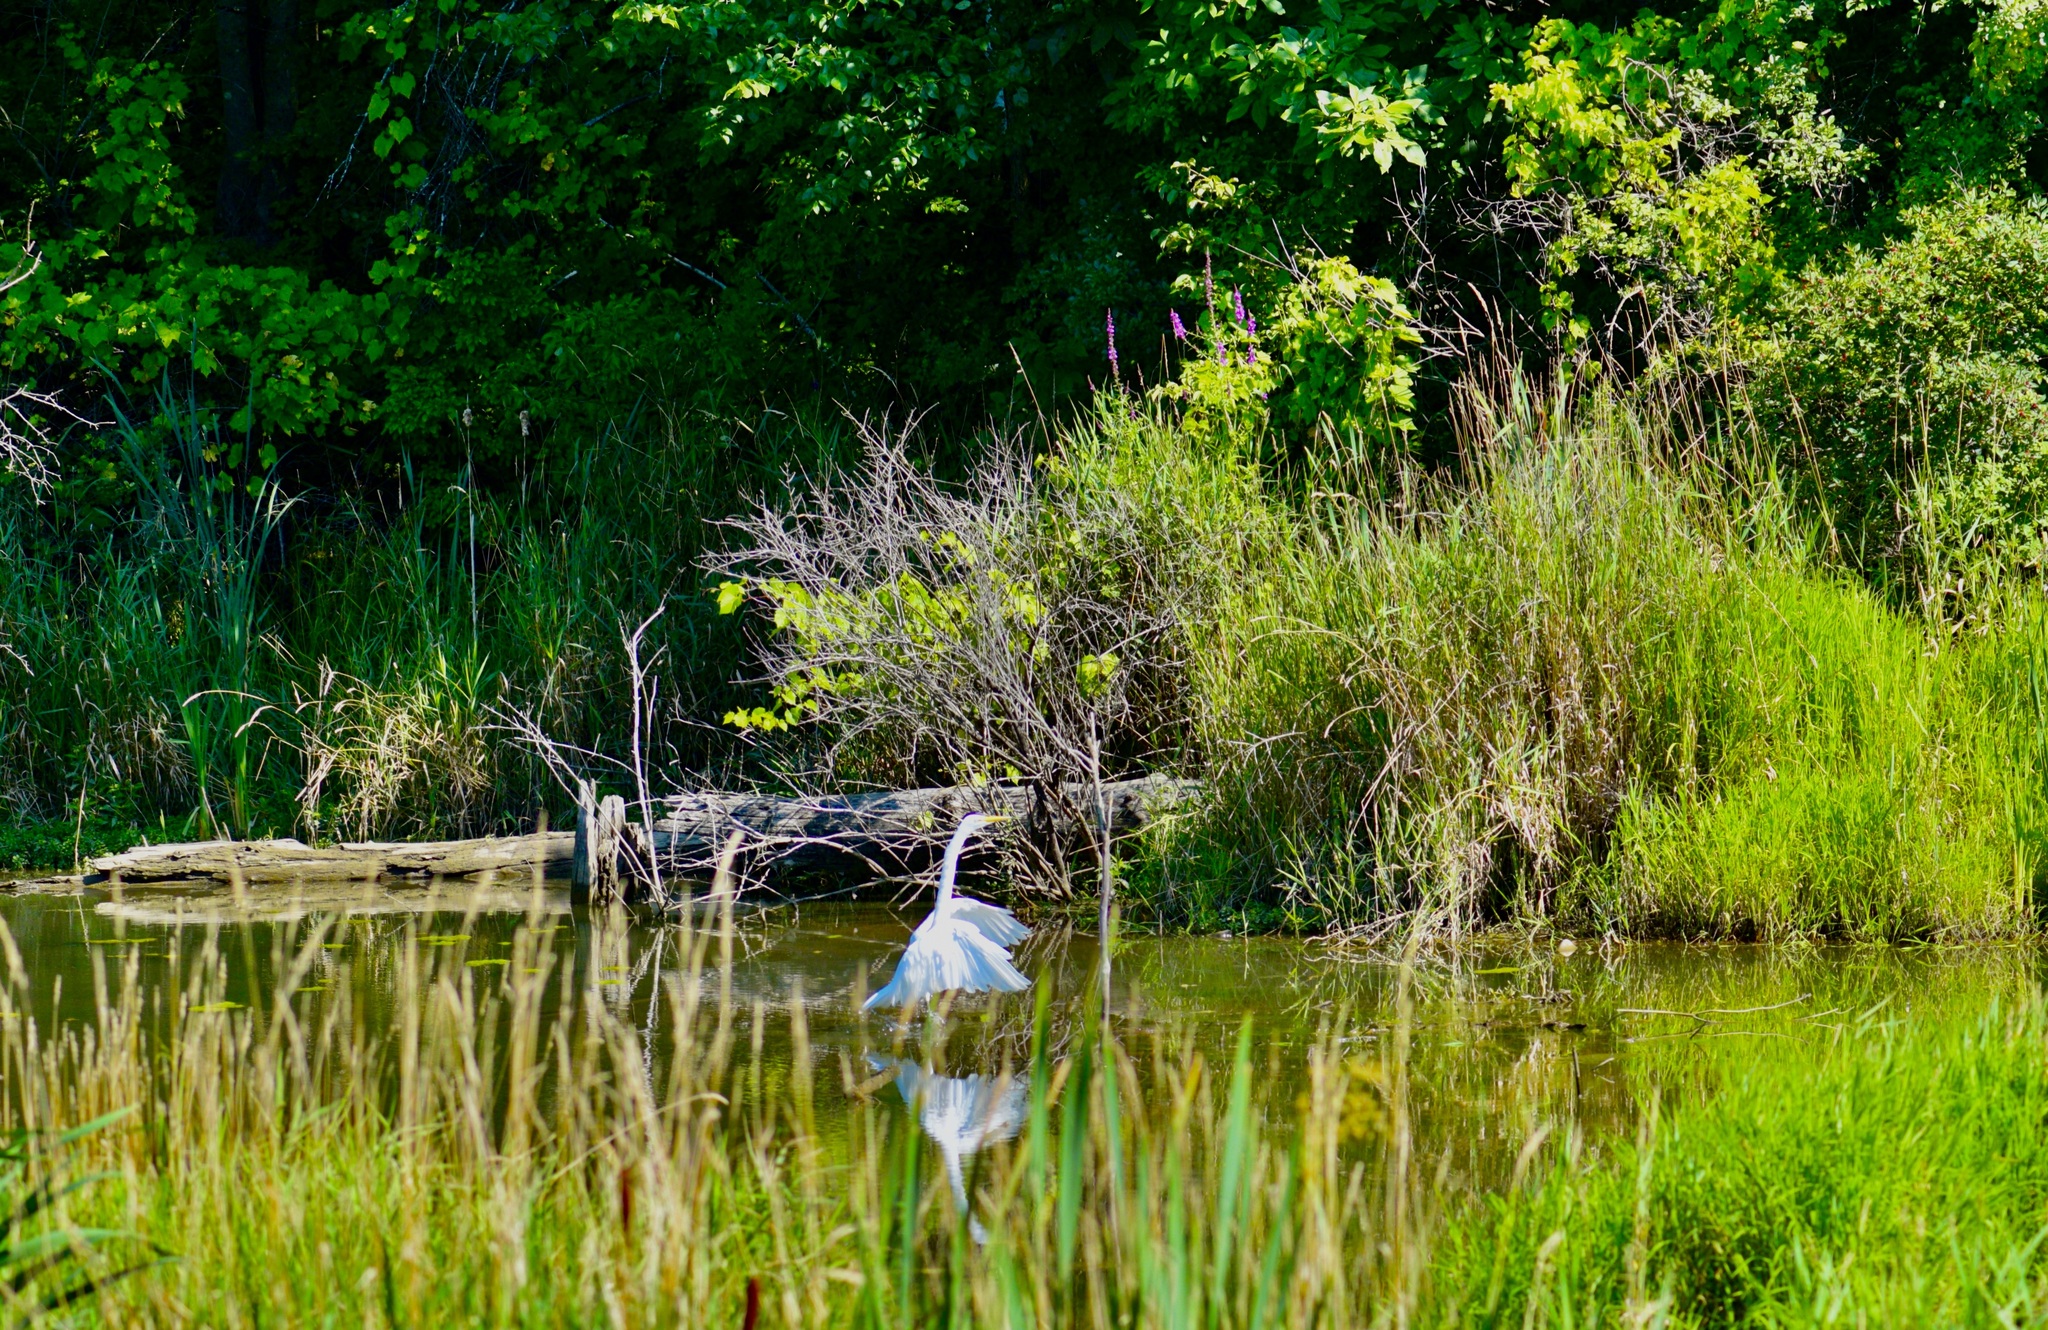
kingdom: Animalia
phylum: Chordata
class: Aves
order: Pelecaniformes
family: Ardeidae
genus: Ardea
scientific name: Ardea alba
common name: Great egret
